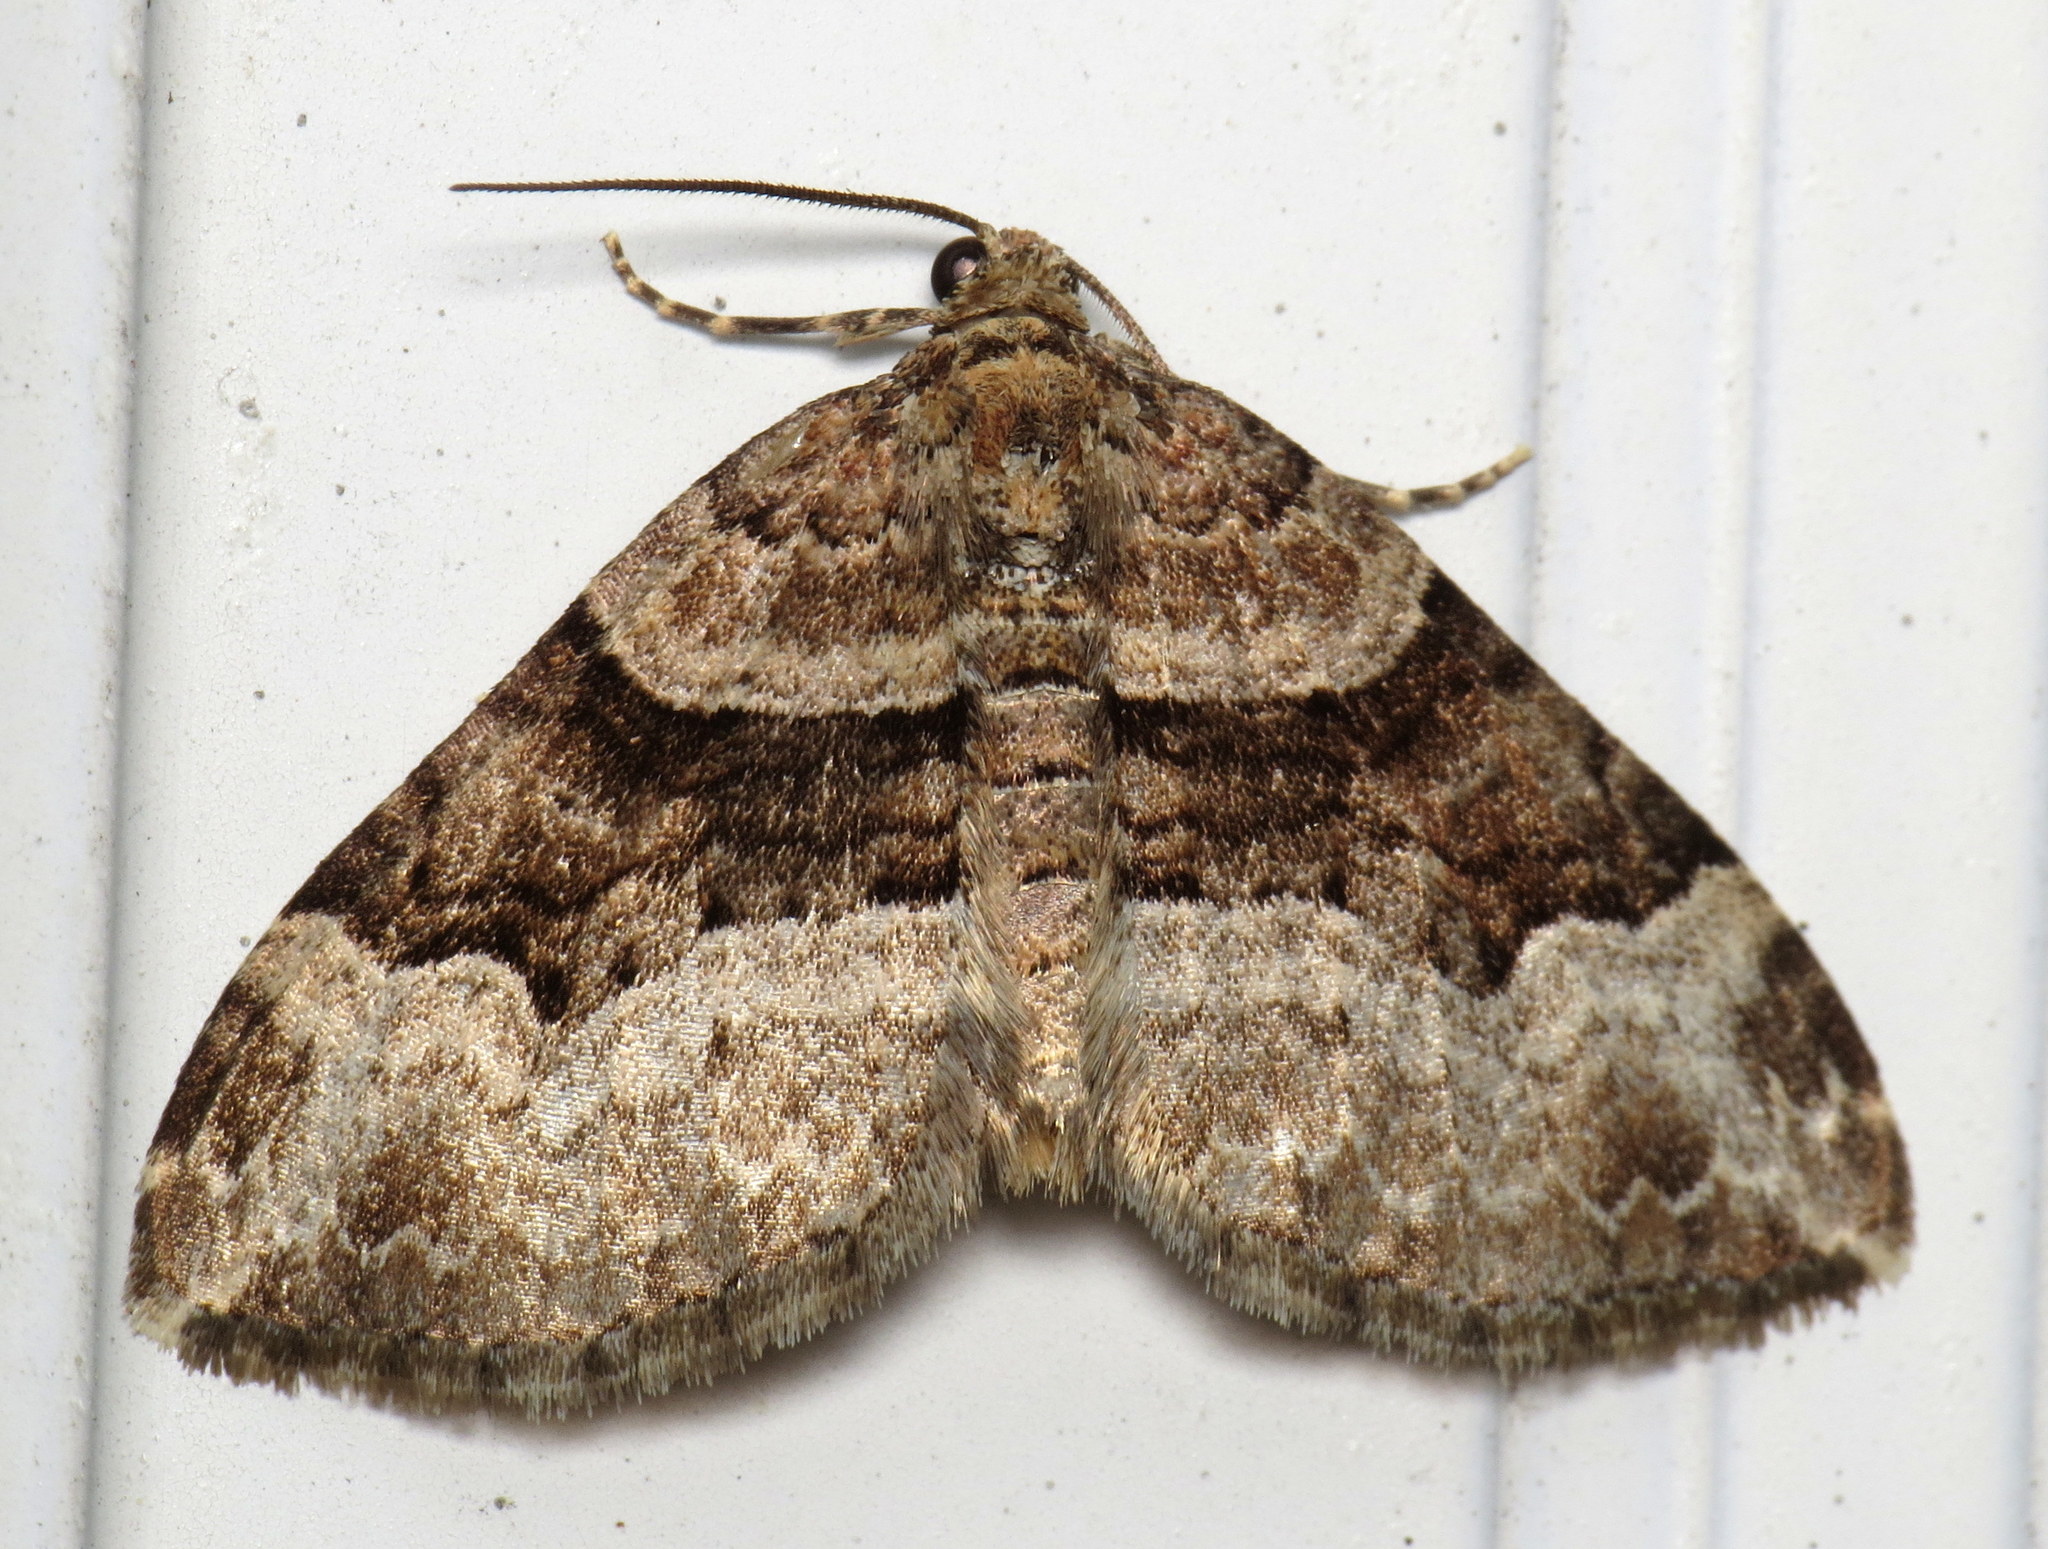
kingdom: Animalia
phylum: Arthropoda
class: Insecta
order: Lepidoptera
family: Geometridae
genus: Xanthorhoe
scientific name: Xanthorhoe lacustrata
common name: Toothed brown carpet
